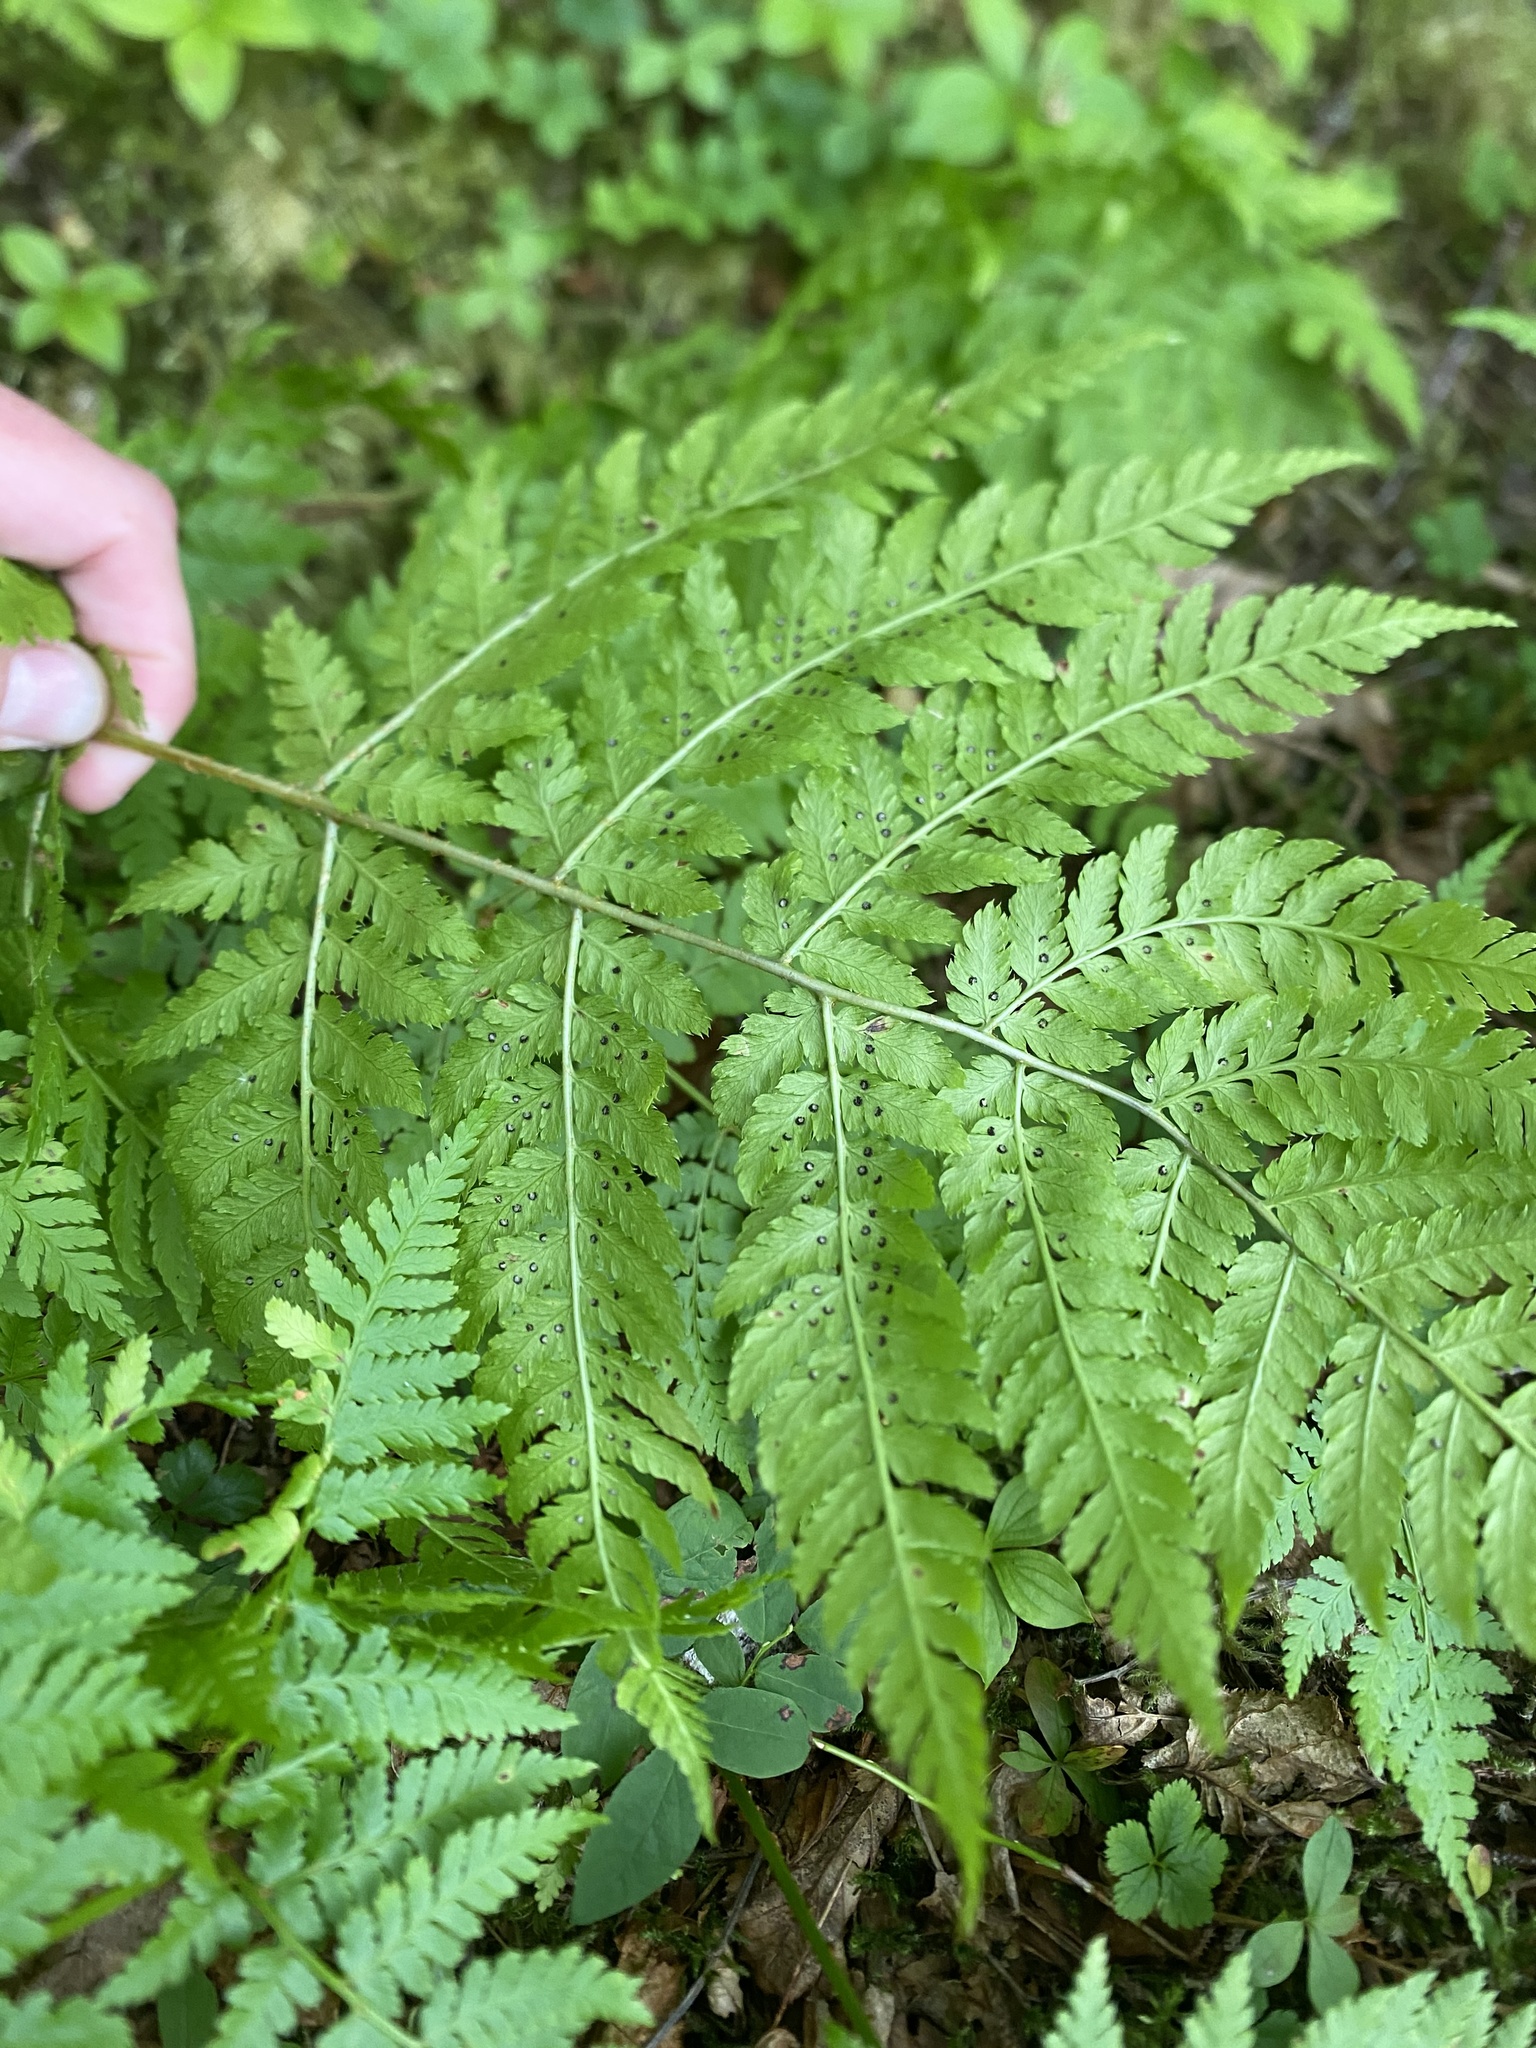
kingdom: Plantae
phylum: Tracheophyta
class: Polypodiopsida
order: Polypodiales
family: Dryopteridaceae
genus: Dryopteris
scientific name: Dryopteris expansa
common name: Northern buckler fern
